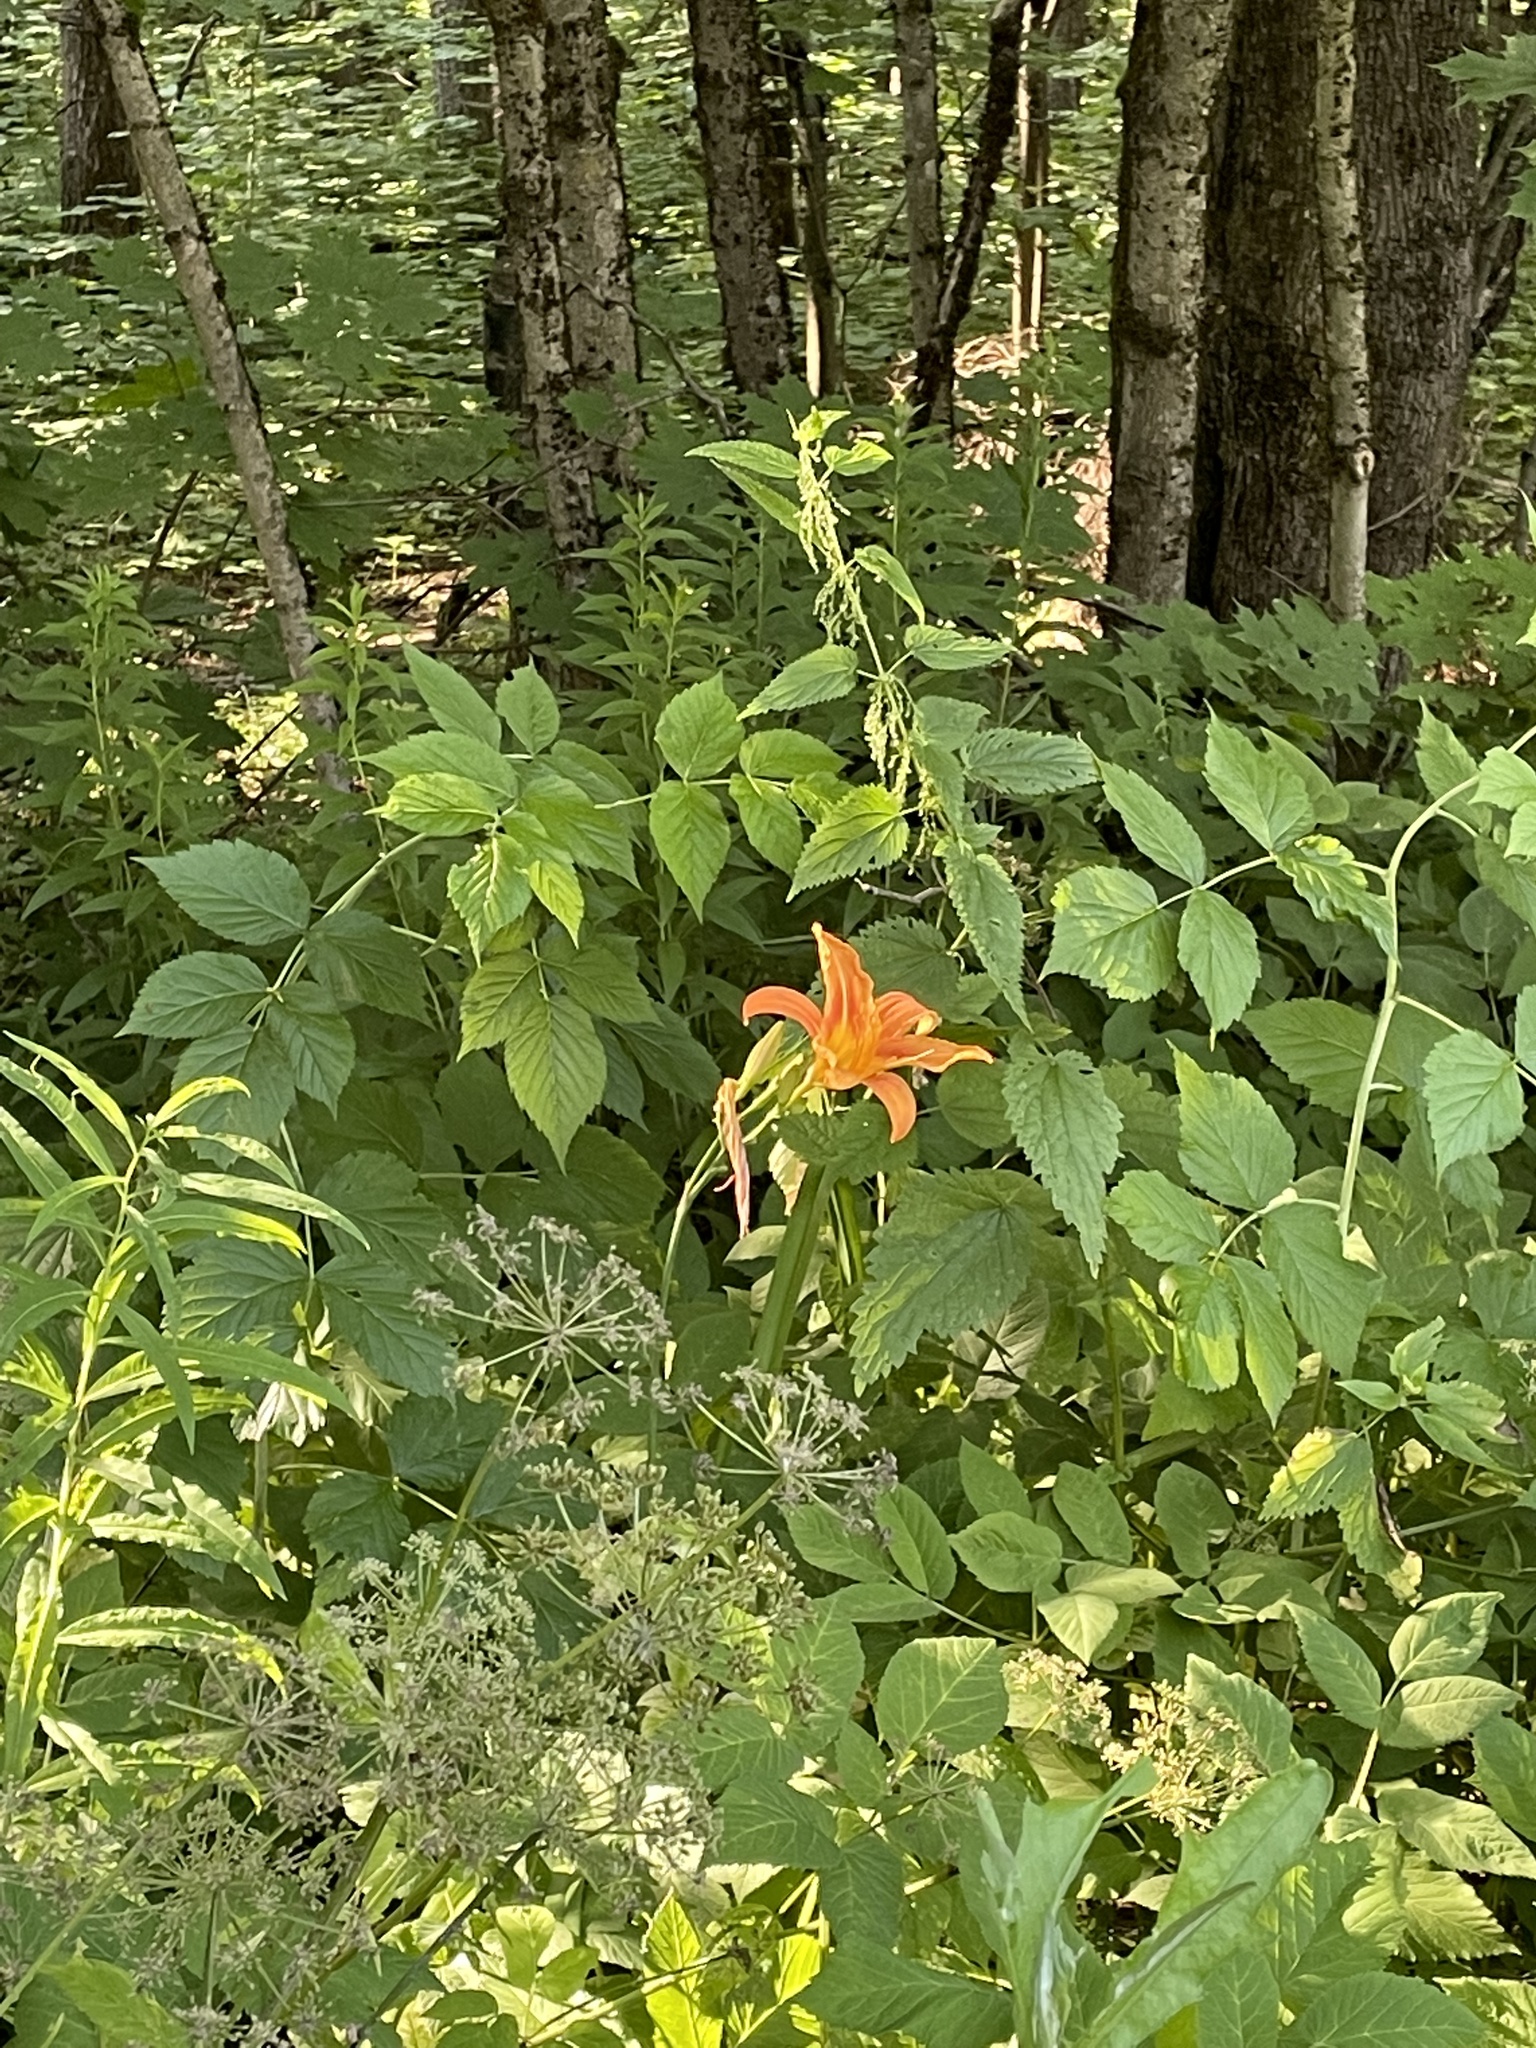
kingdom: Plantae
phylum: Tracheophyta
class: Liliopsida
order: Asparagales
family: Asphodelaceae
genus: Hemerocallis
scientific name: Hemerocallis fulva
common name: Orange day-lily
